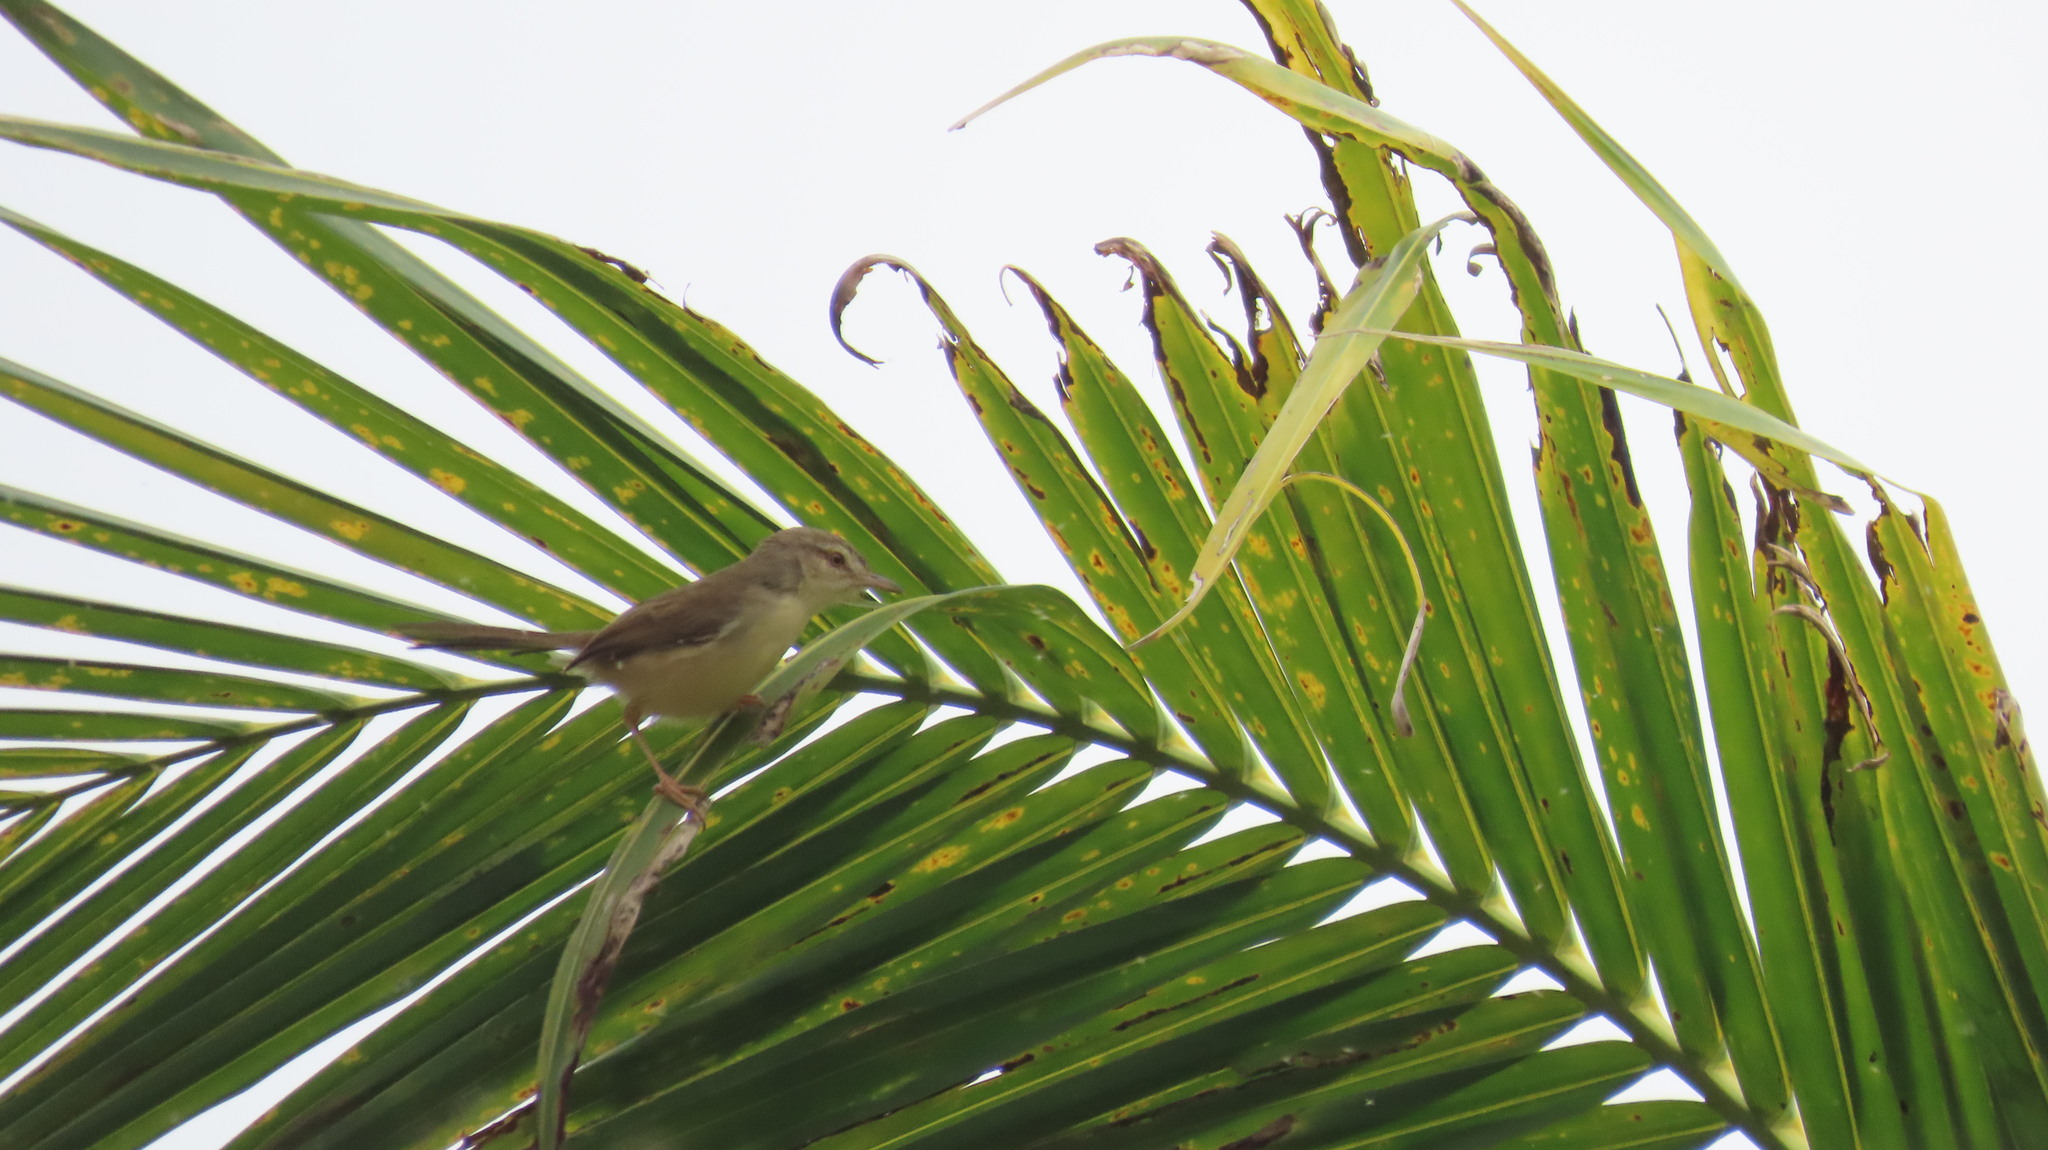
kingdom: Animalia
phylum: Chordata
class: Aves
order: Passeriformes
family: Cisticolidae
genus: Prinia
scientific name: Prinia inornata
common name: Plain prinia
